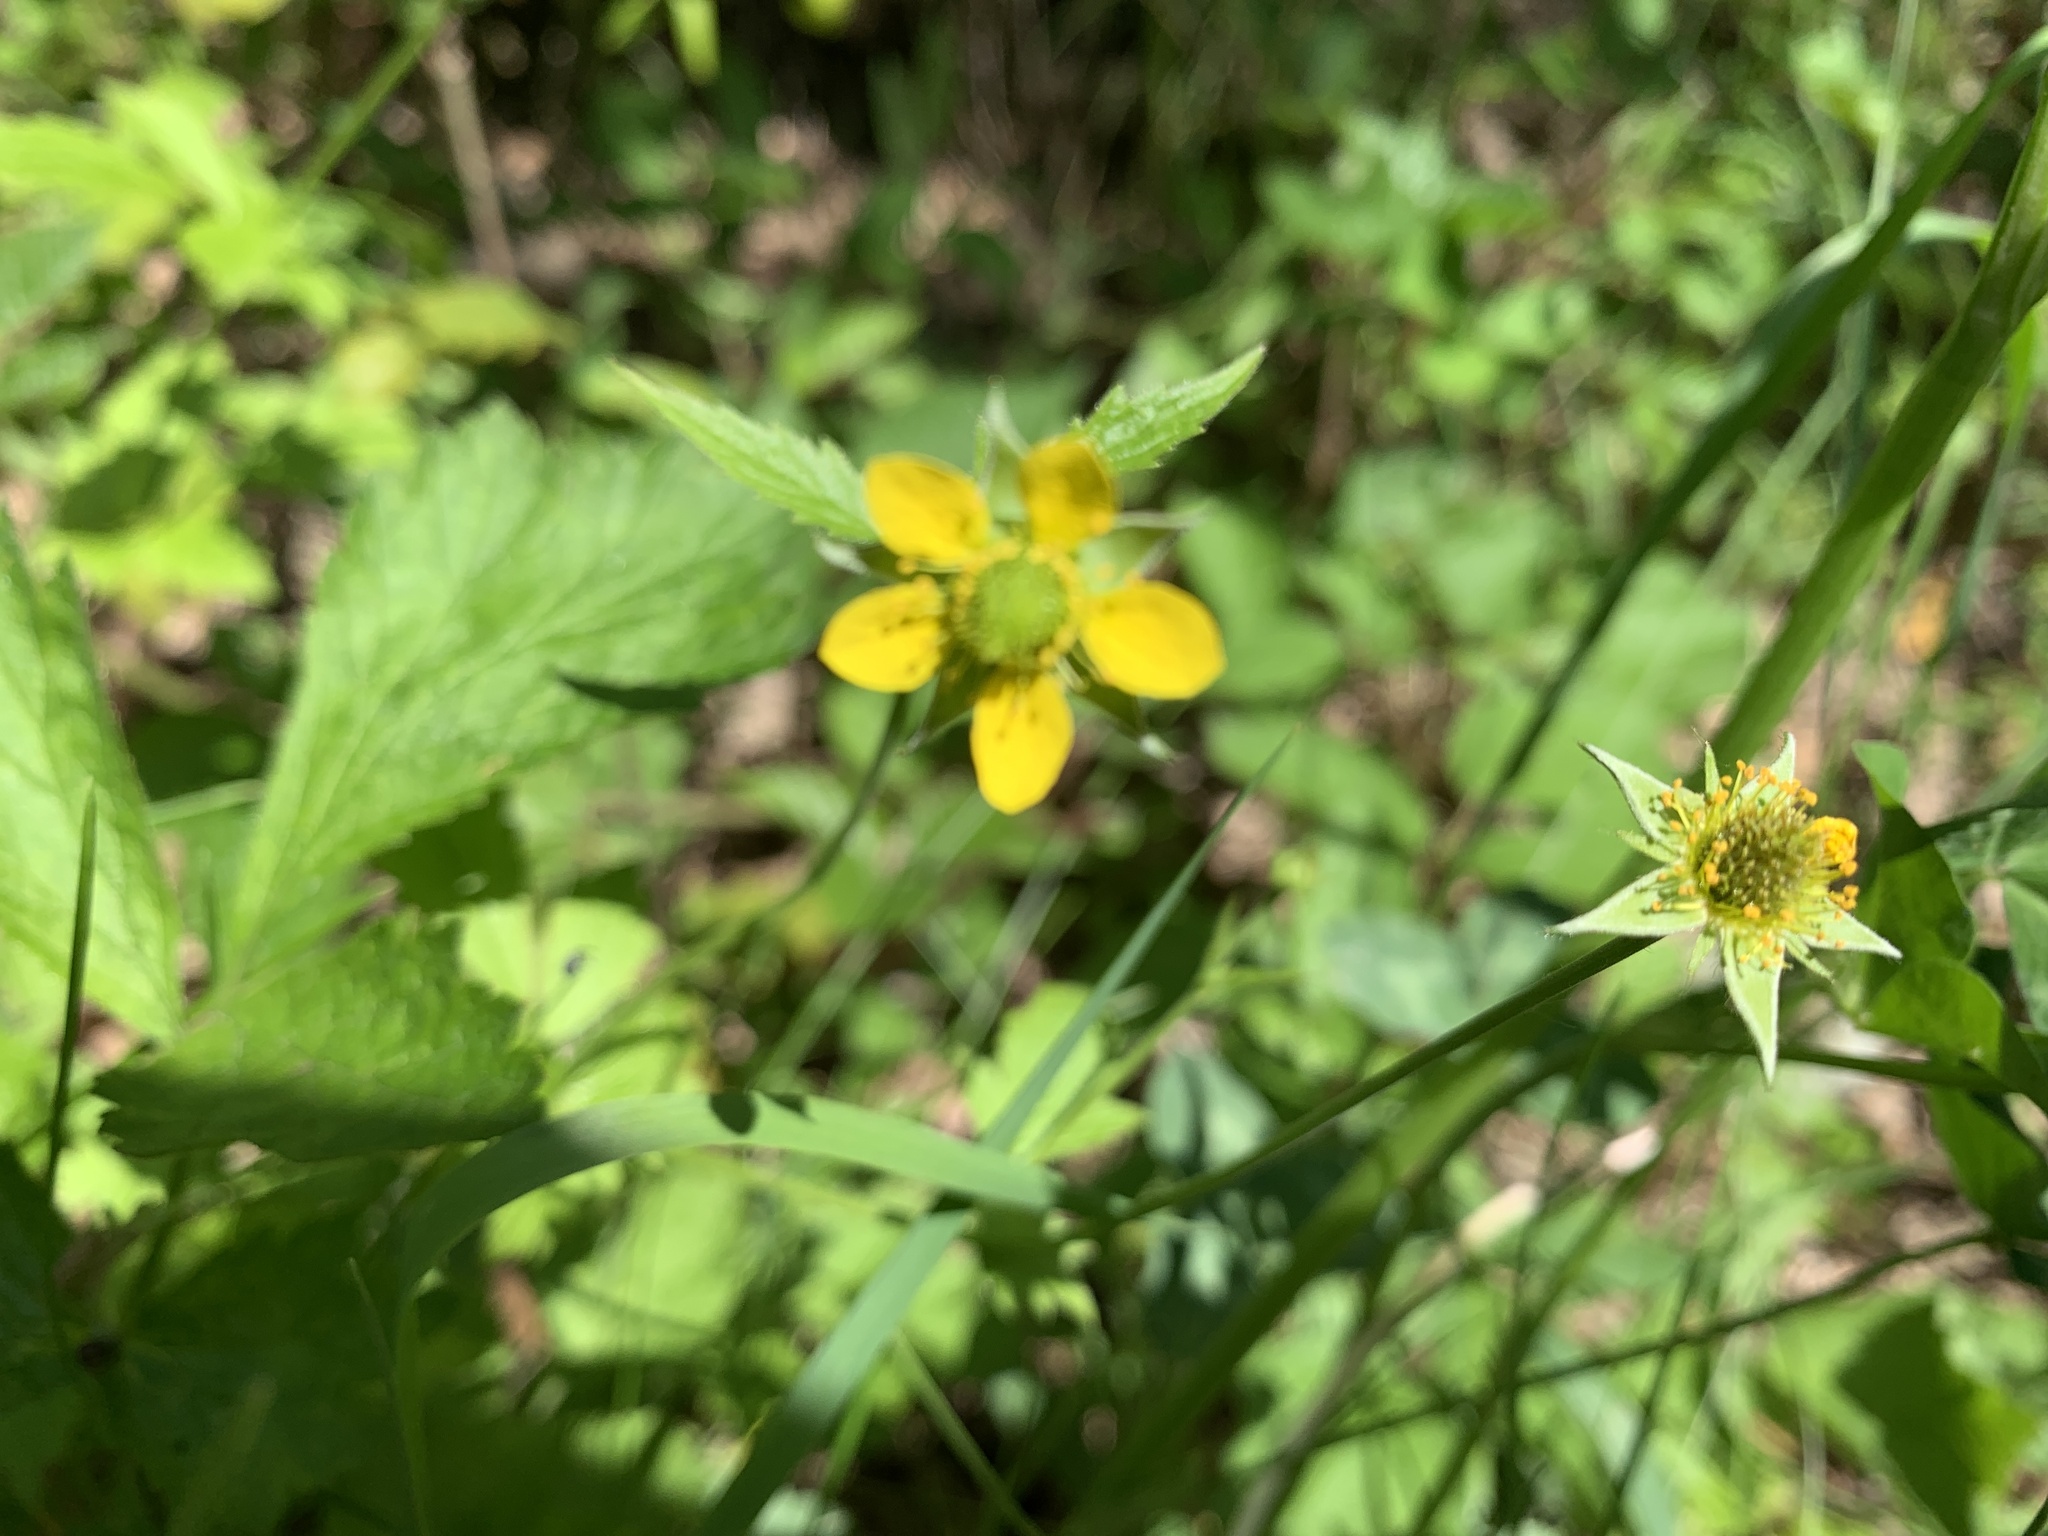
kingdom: Plantae
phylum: Tracheophyta
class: Magnoliopsida
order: Rosales
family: Rosaceae
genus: Geum
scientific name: Geum urbanum
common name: Wood avens
